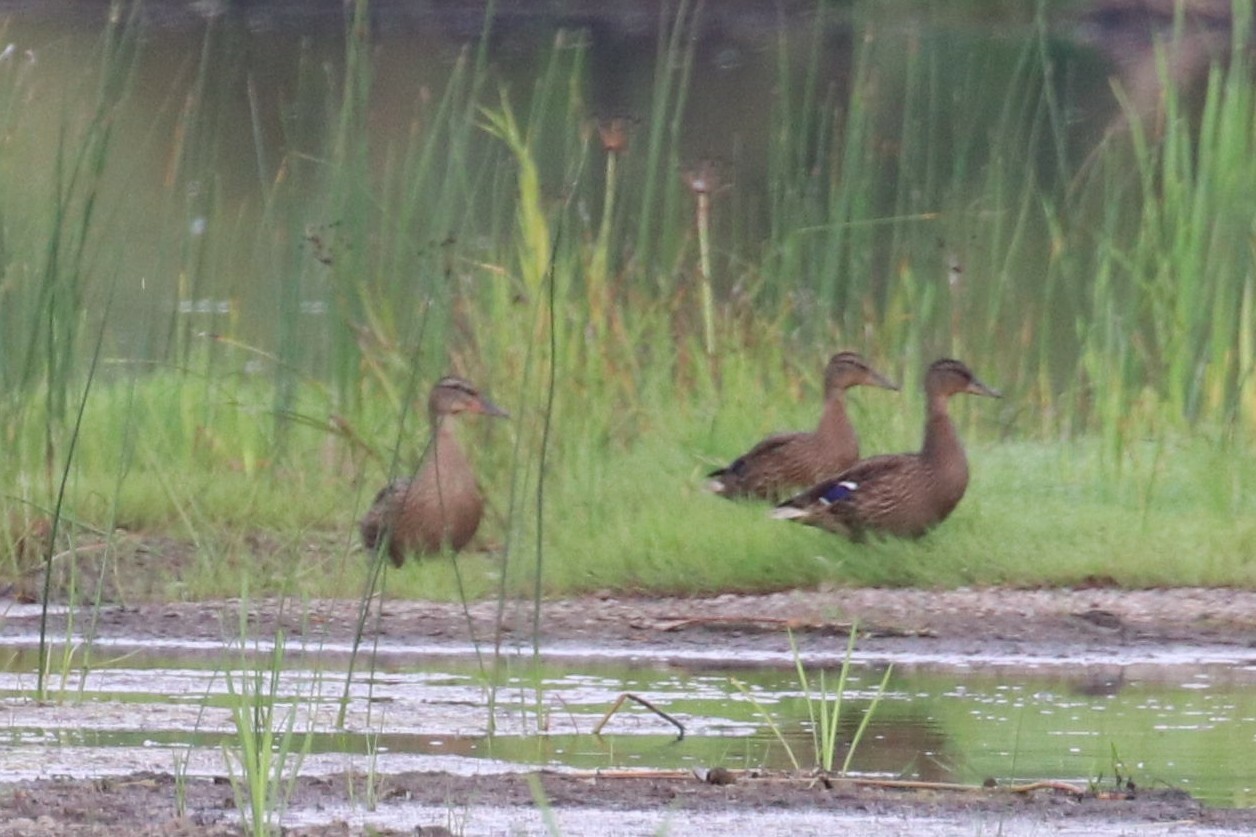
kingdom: Animalia
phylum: Chordata
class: Aves
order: Anseriformes
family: Anatidae
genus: Anas
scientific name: Anas platyrhynchos
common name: Mallard
